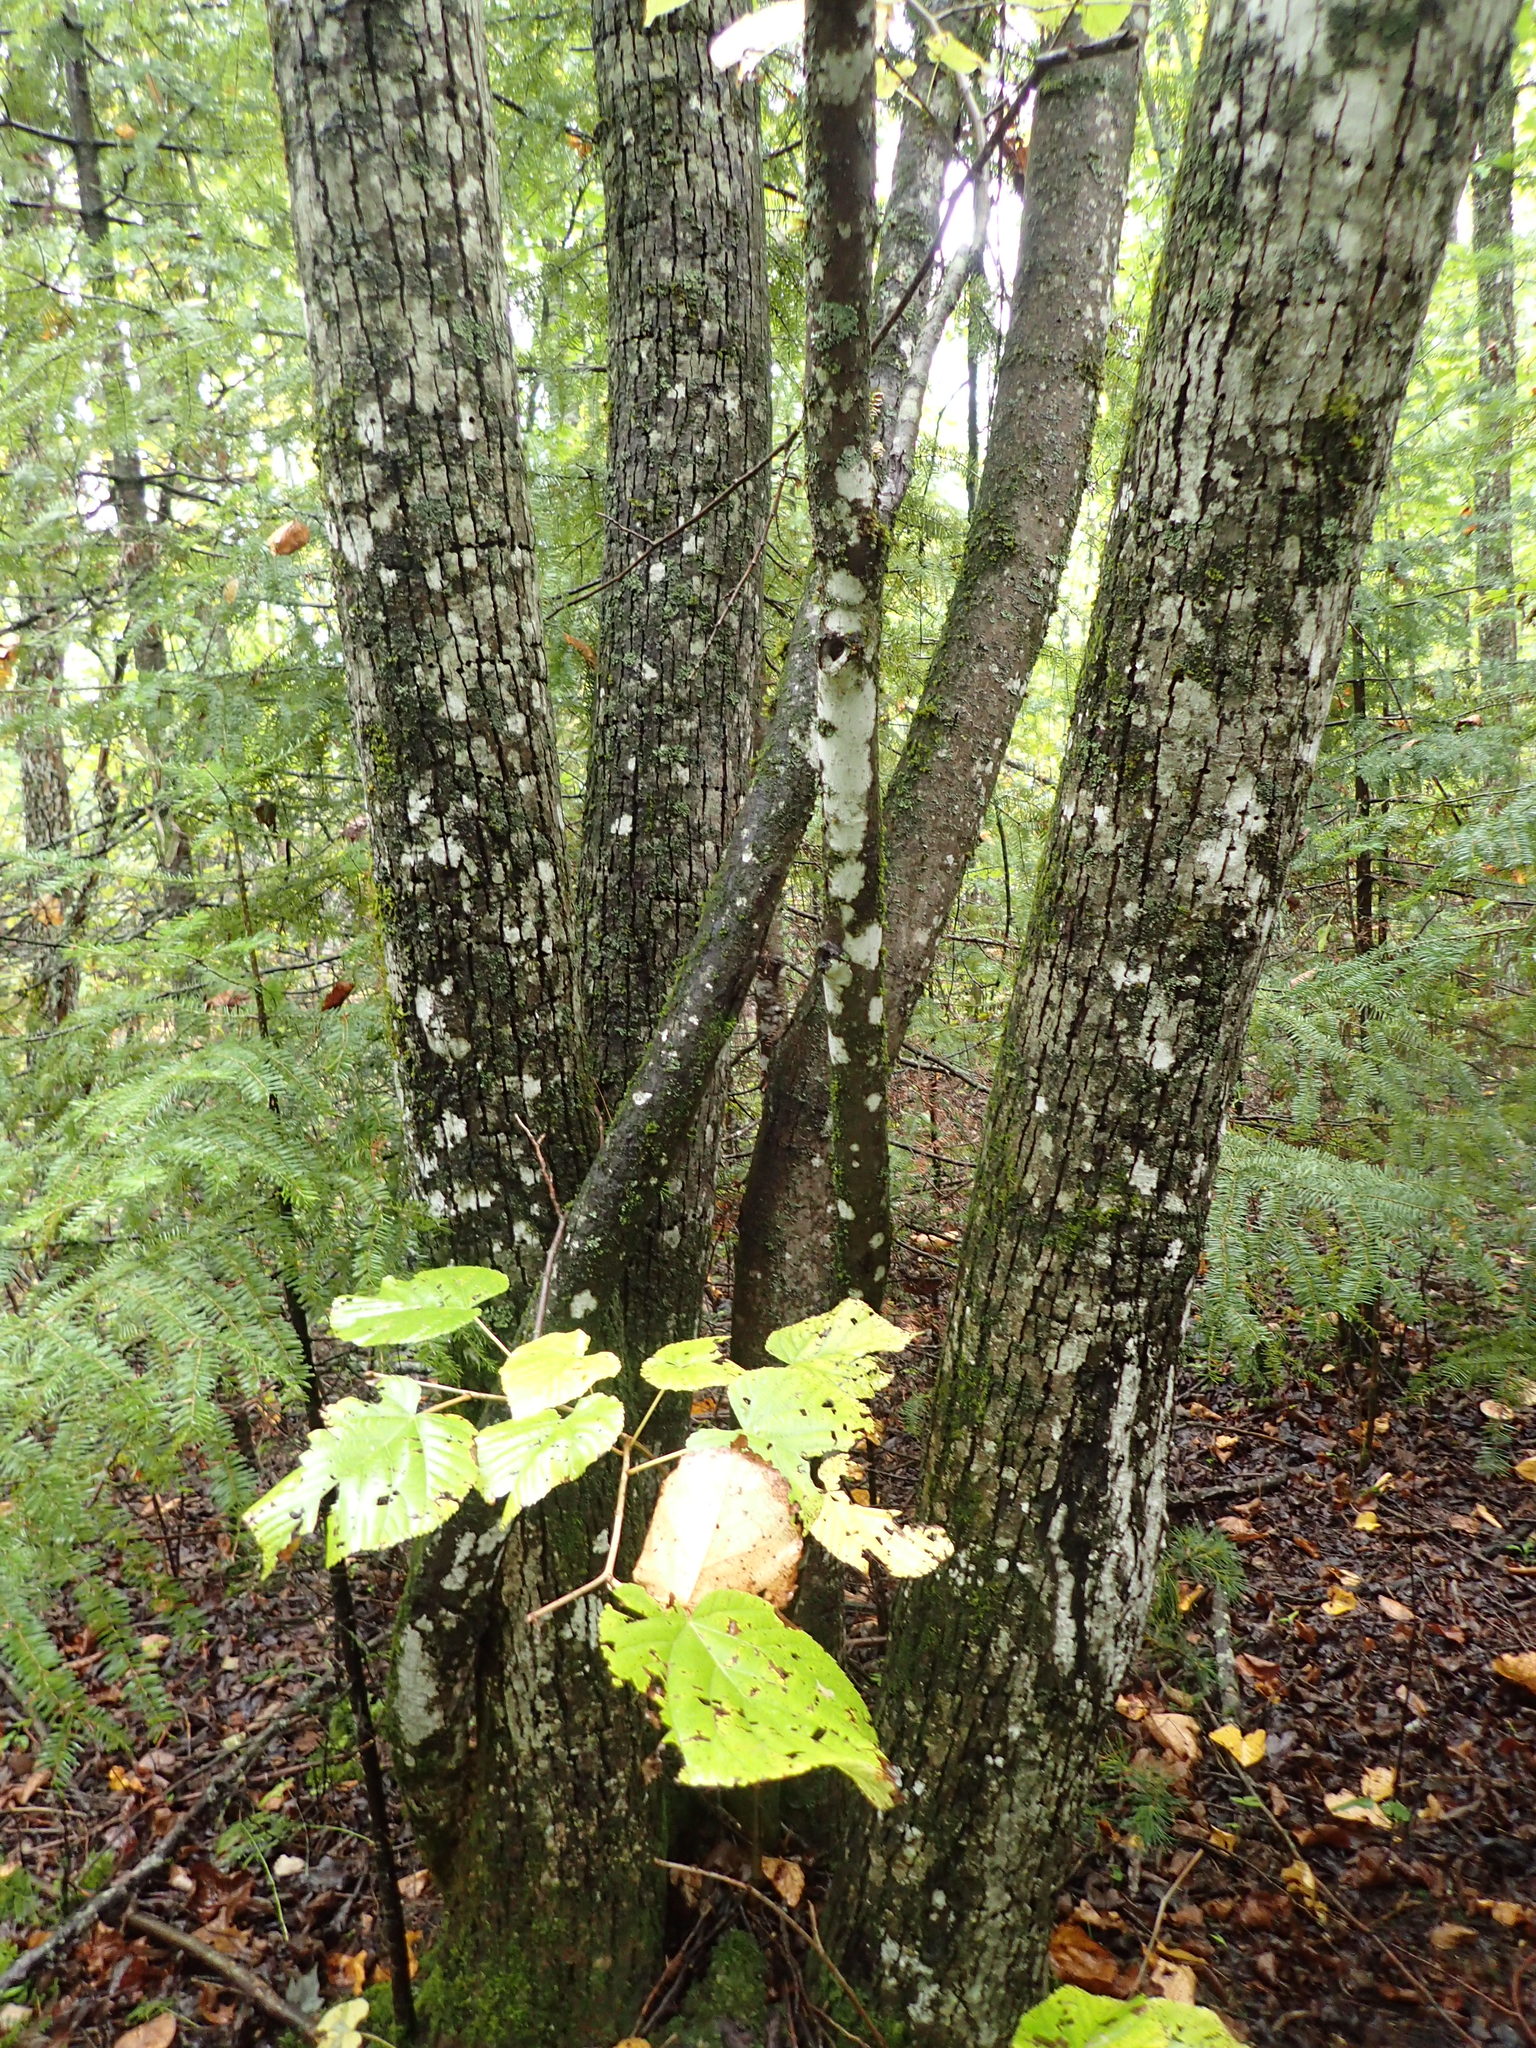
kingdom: Plantae
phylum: Tracheophyta
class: Magnoliopsida
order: Malvales
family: Malvaceae
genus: Tilia
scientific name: Tilia americana
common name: Basswood
